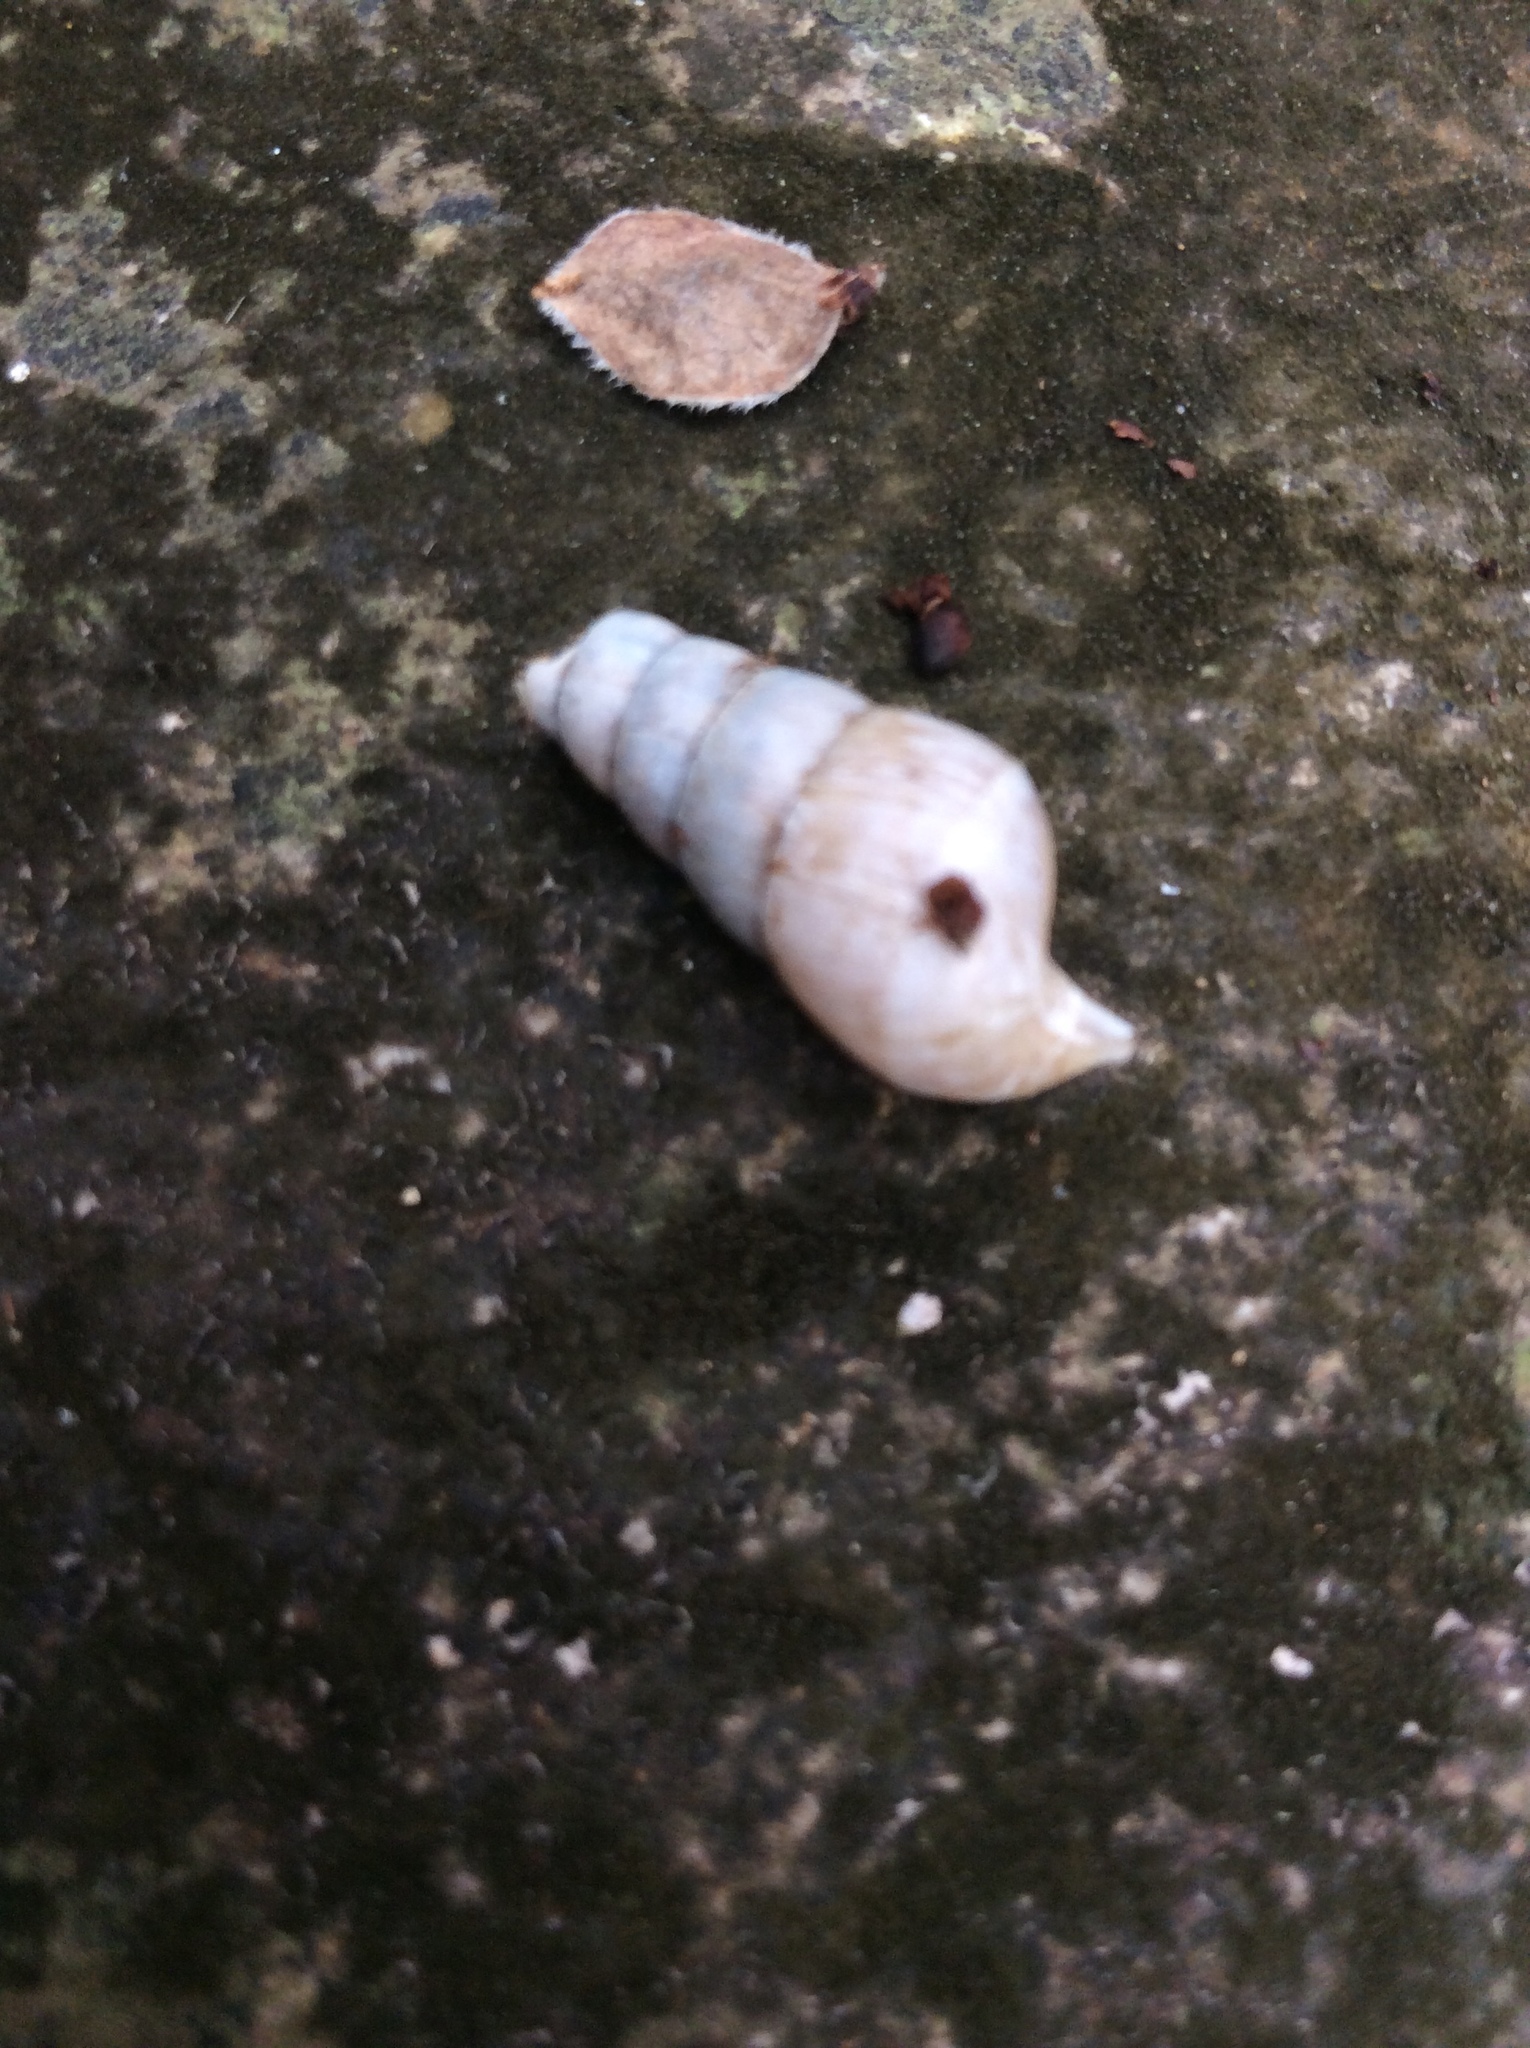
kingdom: Animalia
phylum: Mollusca
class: Gastropoda
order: Stylommatophora
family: Achatinidae
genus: Rumina
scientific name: Rumina decollata
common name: Decollate snail
